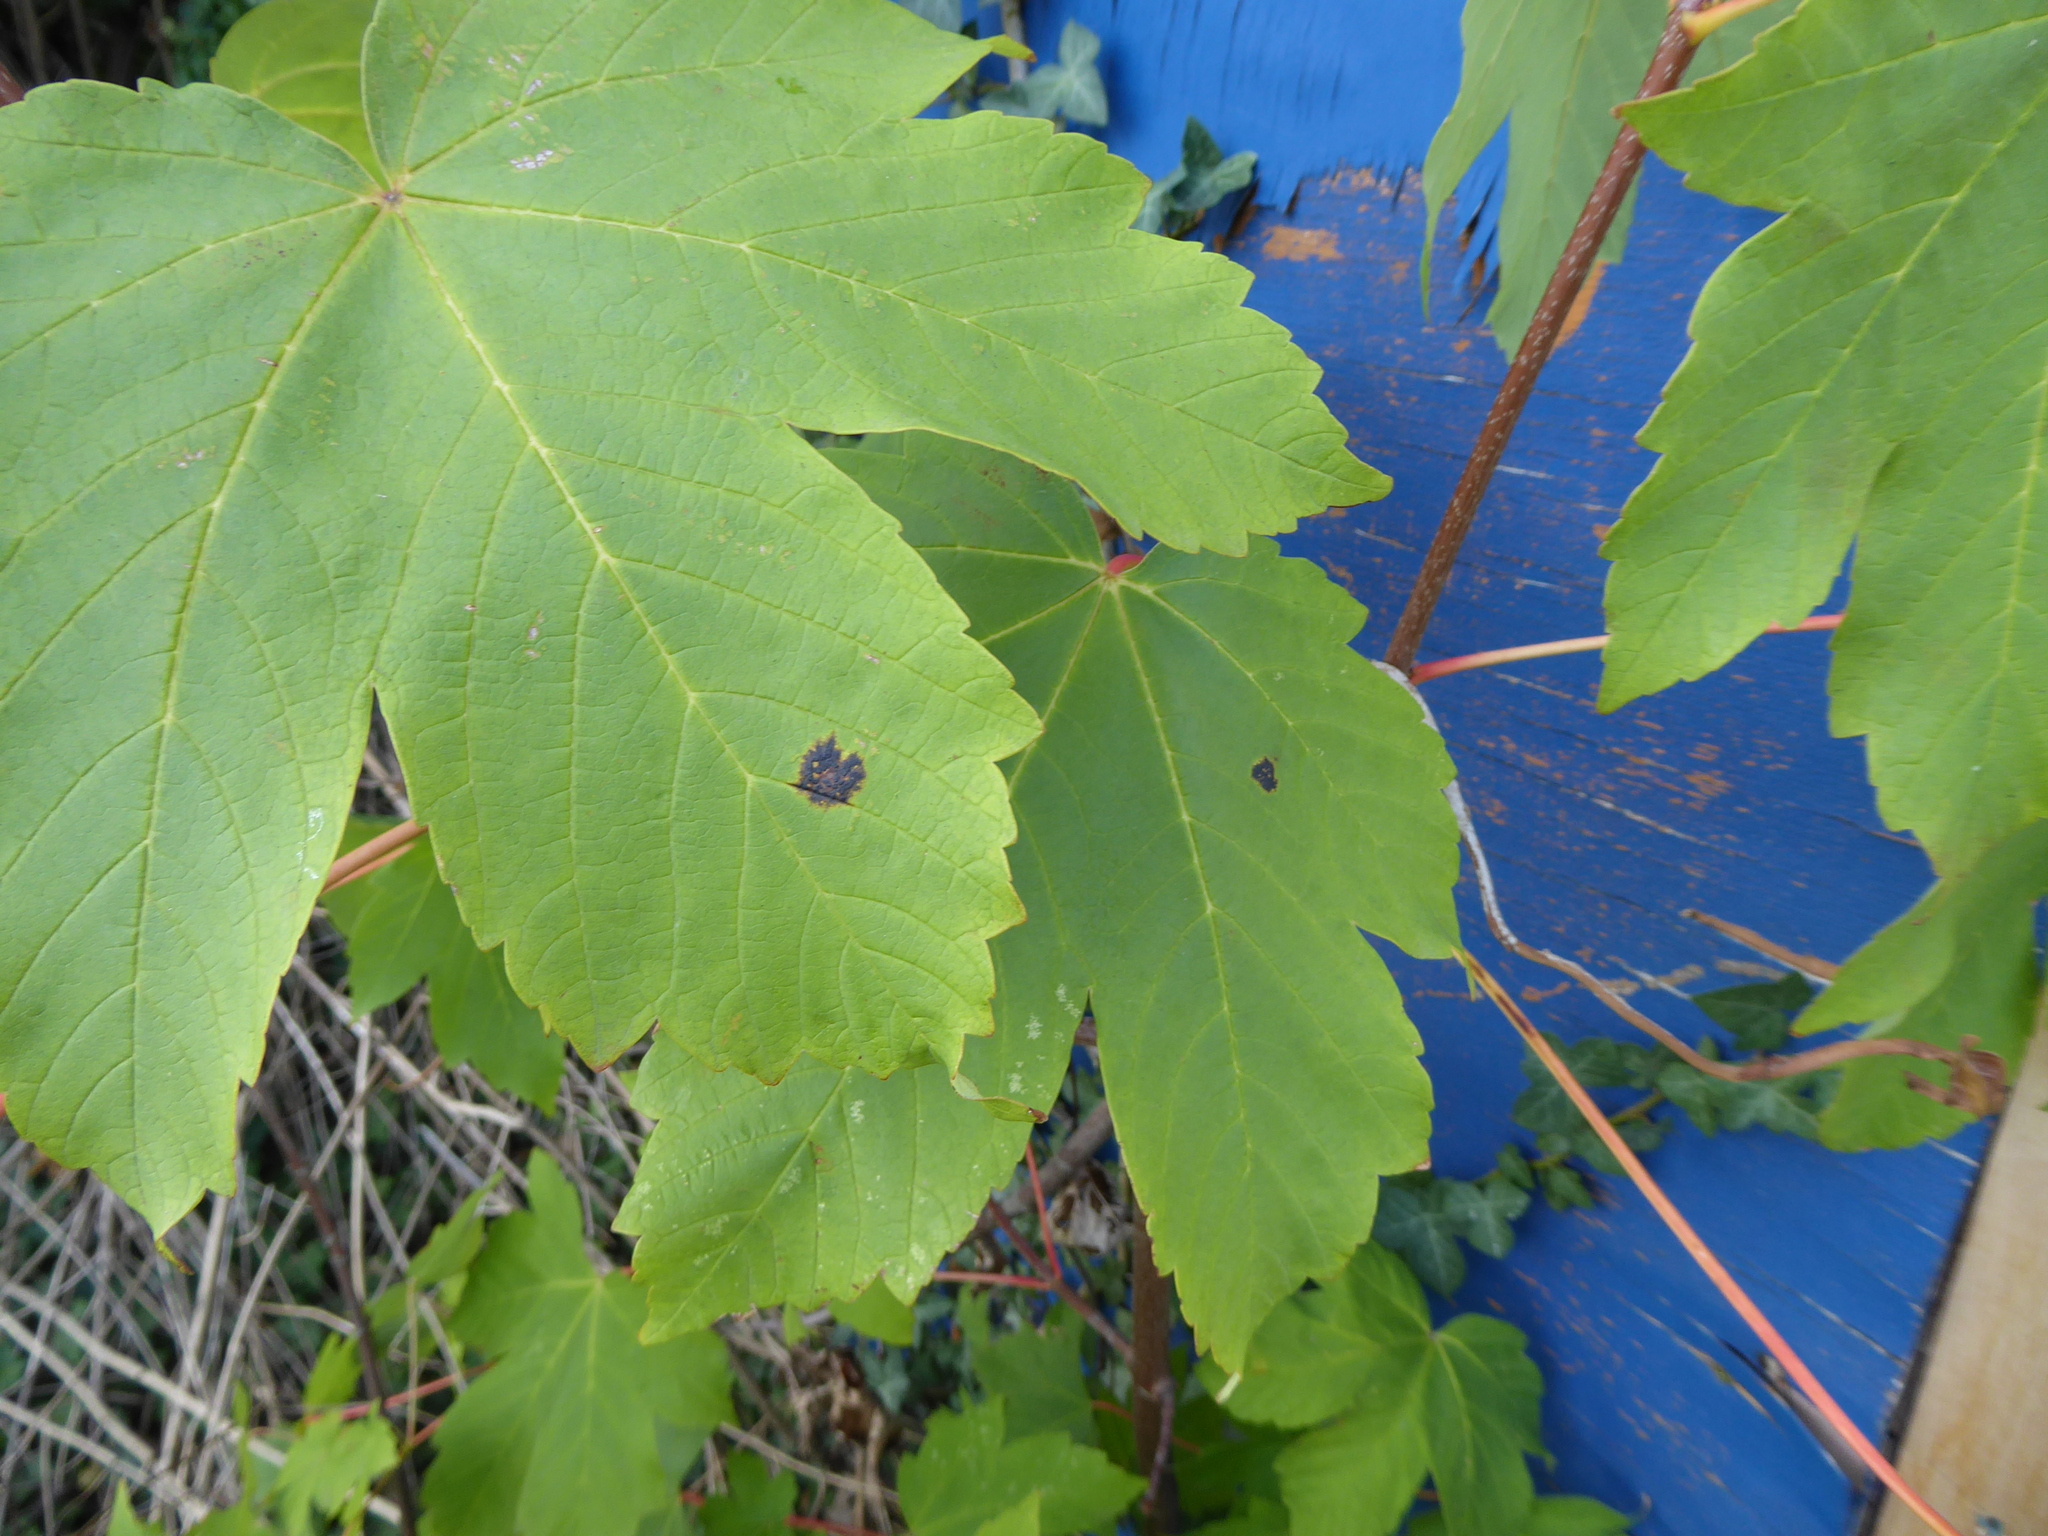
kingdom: Fungi
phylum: Ascomycota
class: Leotiomycetes
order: Rhytismatales
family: Rhytismataceae
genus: Rhytisma
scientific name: Rhytisma acerinum
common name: European tar spot
